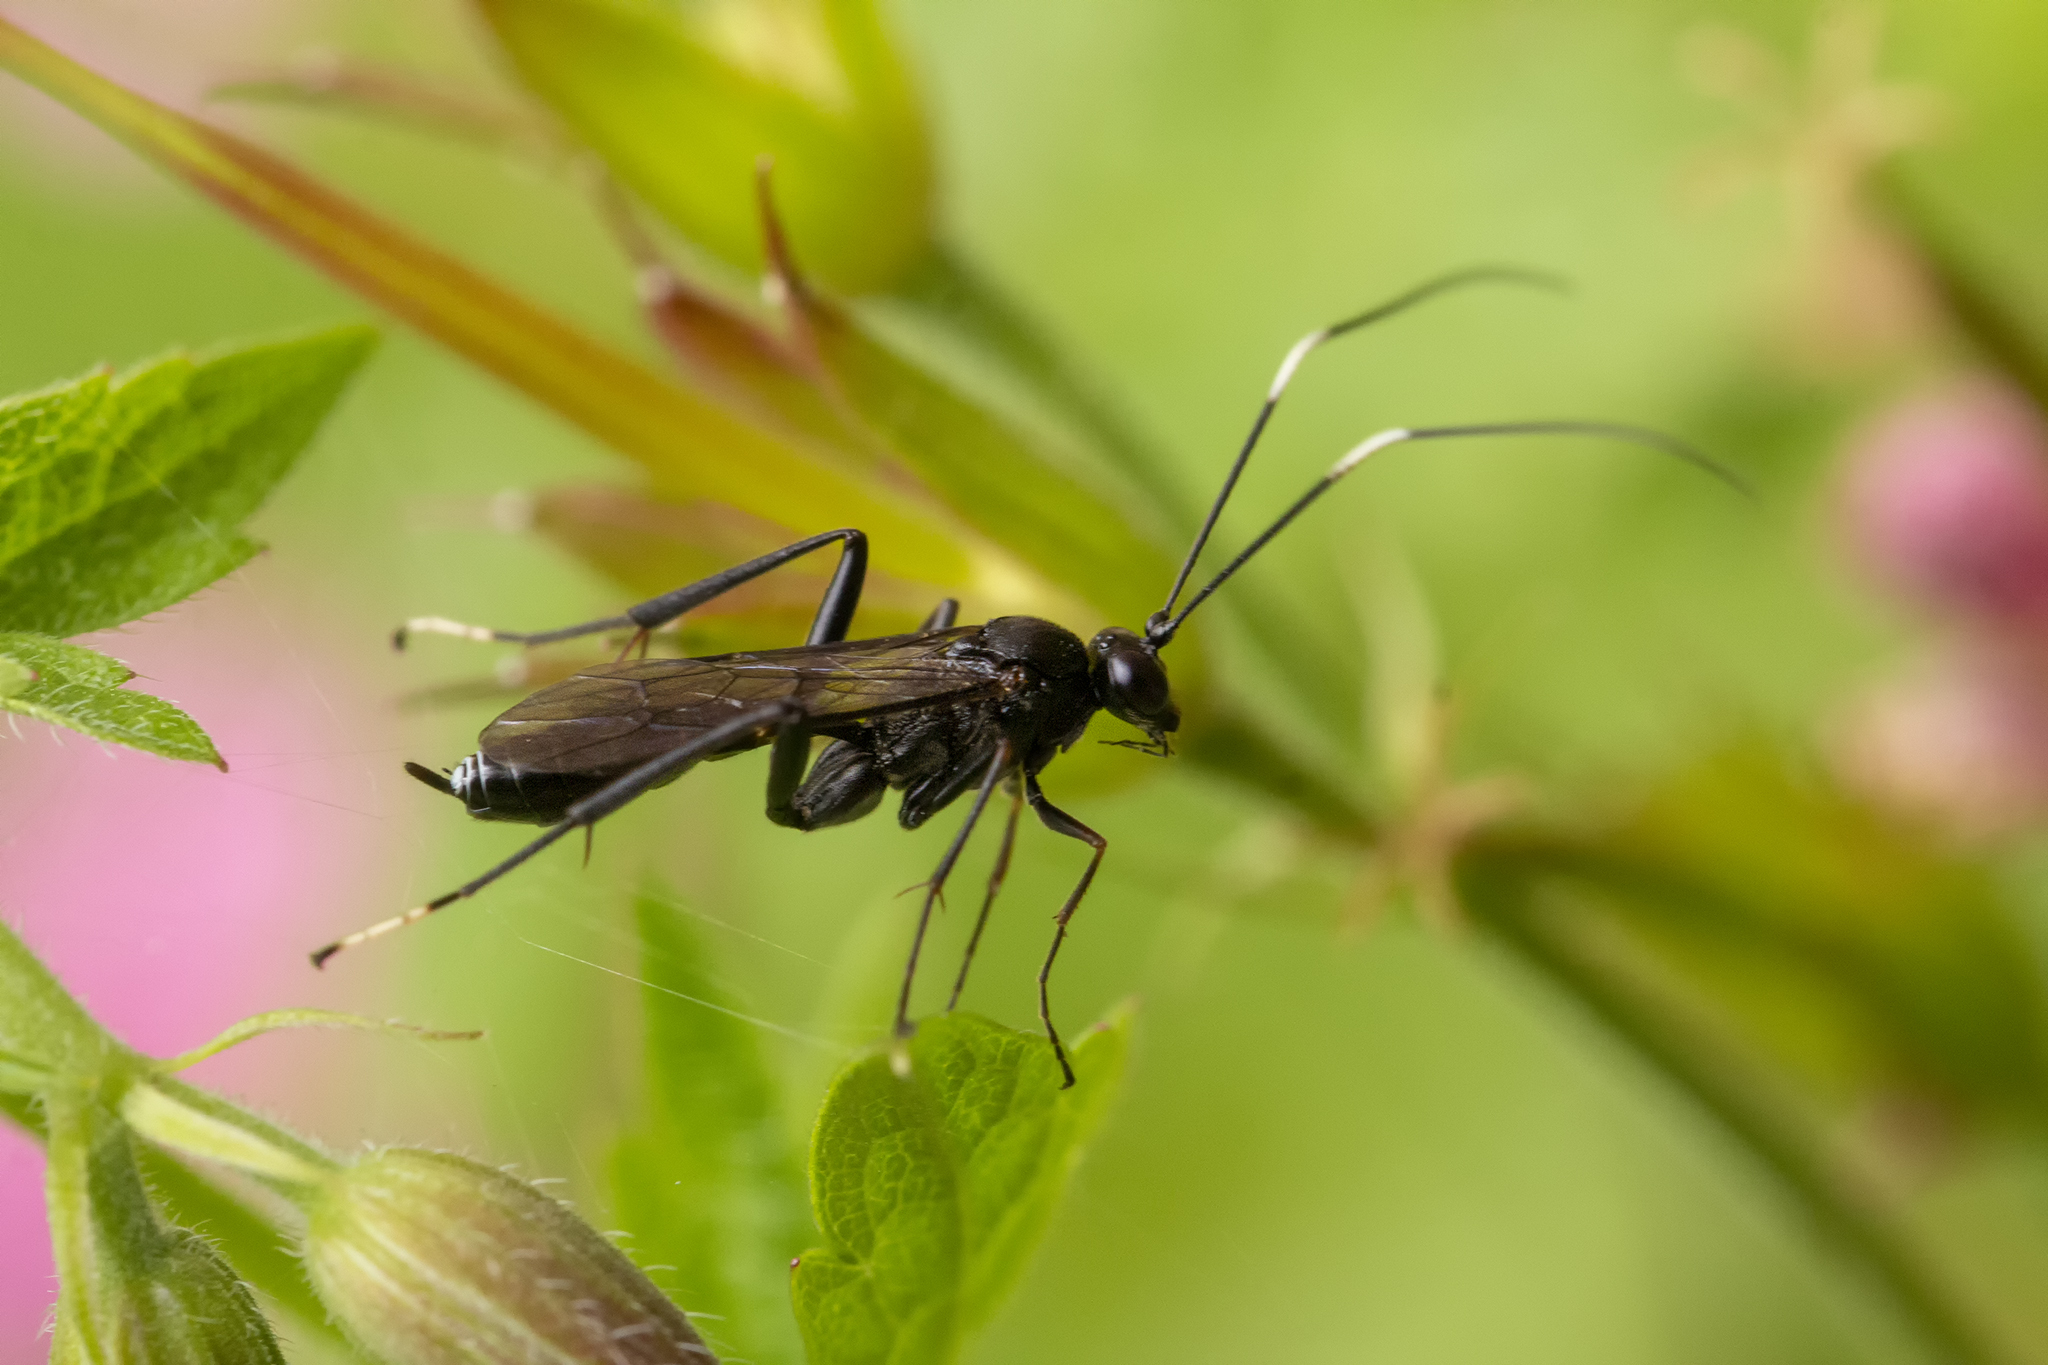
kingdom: Animalia
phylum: Arthropoda
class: Insecta
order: Hymenoptera
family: Ichneumonidae
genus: Exetastes
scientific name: Exetastes illyricus
